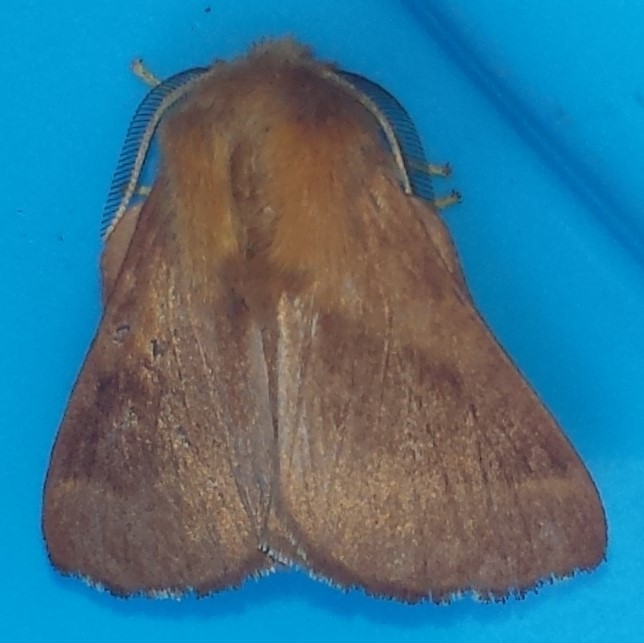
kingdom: Animalia
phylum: Arthropoda
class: Insecta
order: Lepidoptera
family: Lasiocampidae
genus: Malacosoma
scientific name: Malacosoma disstria
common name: Forest tent caterpillar
